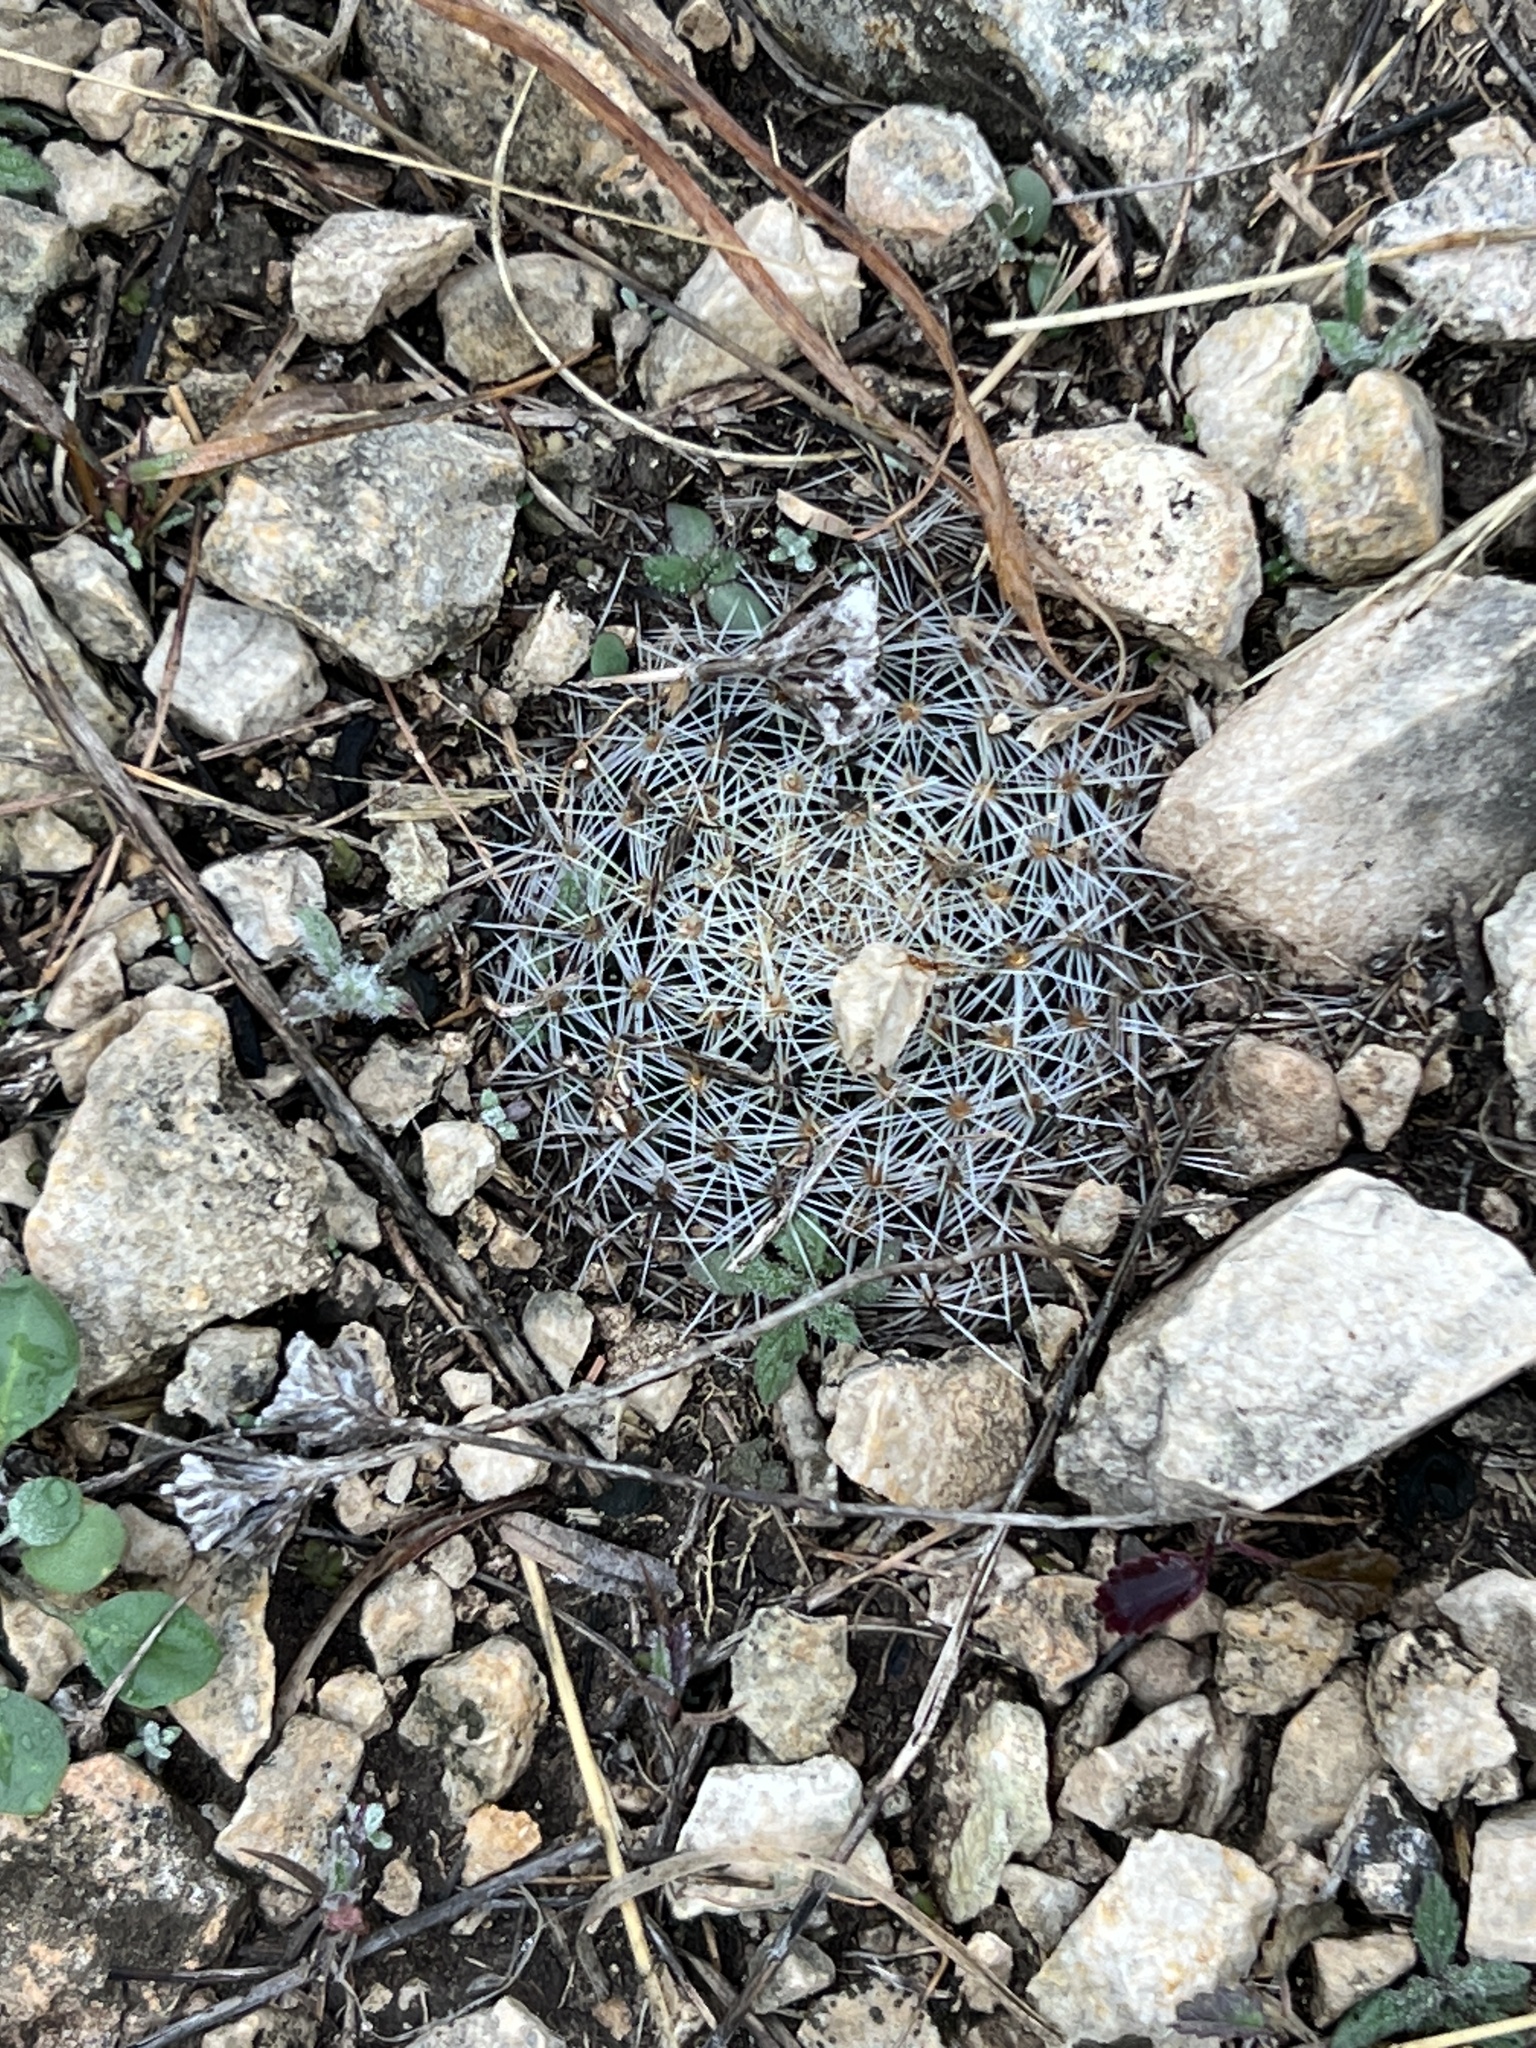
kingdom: Plantae
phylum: Tracheophyta
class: Magnoliopsida
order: Caryophyllales
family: Cactaceae
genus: Mammillaria
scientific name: Mammillaria heyderi
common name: Little nipple cactus
